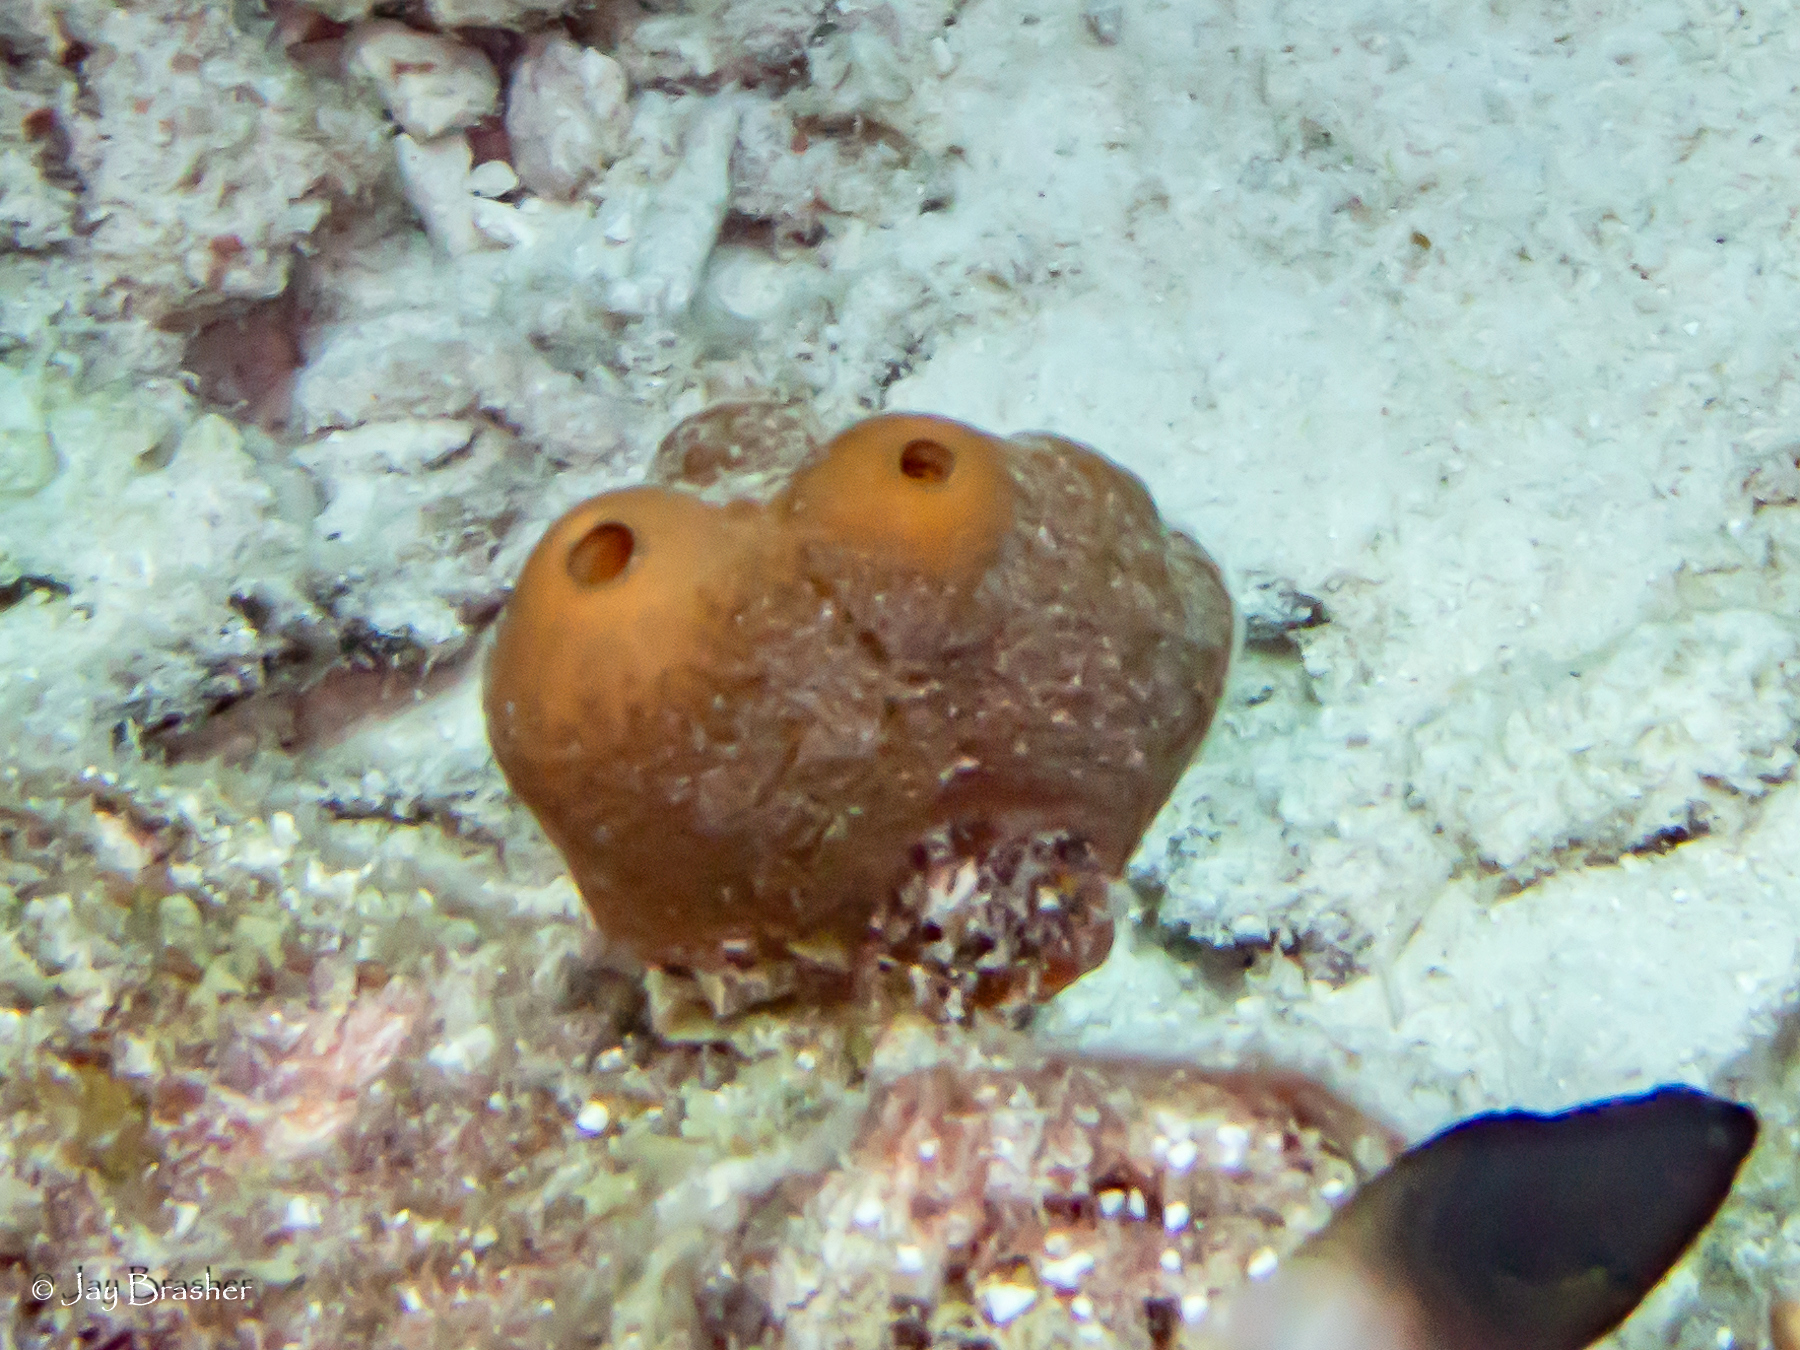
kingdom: Animalia
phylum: Porifera
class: Demospongiae
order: Agelasida
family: Agelasidae
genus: Agelas
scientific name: Agelas conifera
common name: Brown tube sponge
